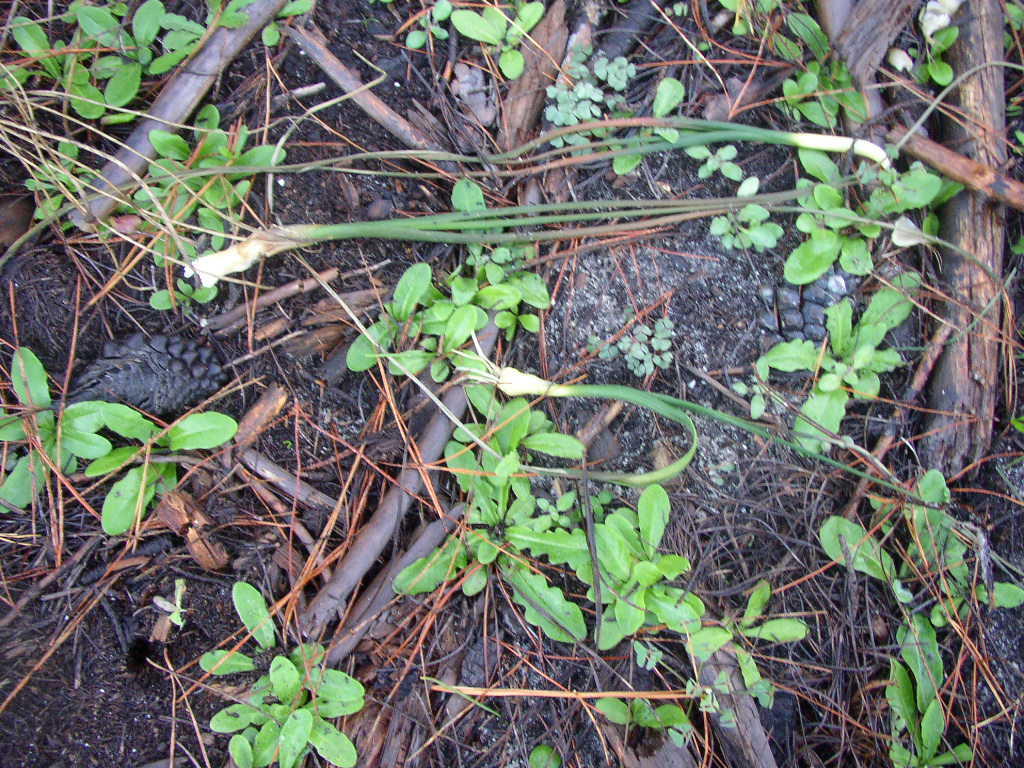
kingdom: Animalia
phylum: Chordata
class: Mammalia
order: Primates
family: Cercopithecidae
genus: Papio
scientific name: Papio ursinus
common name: Chacma baboon
